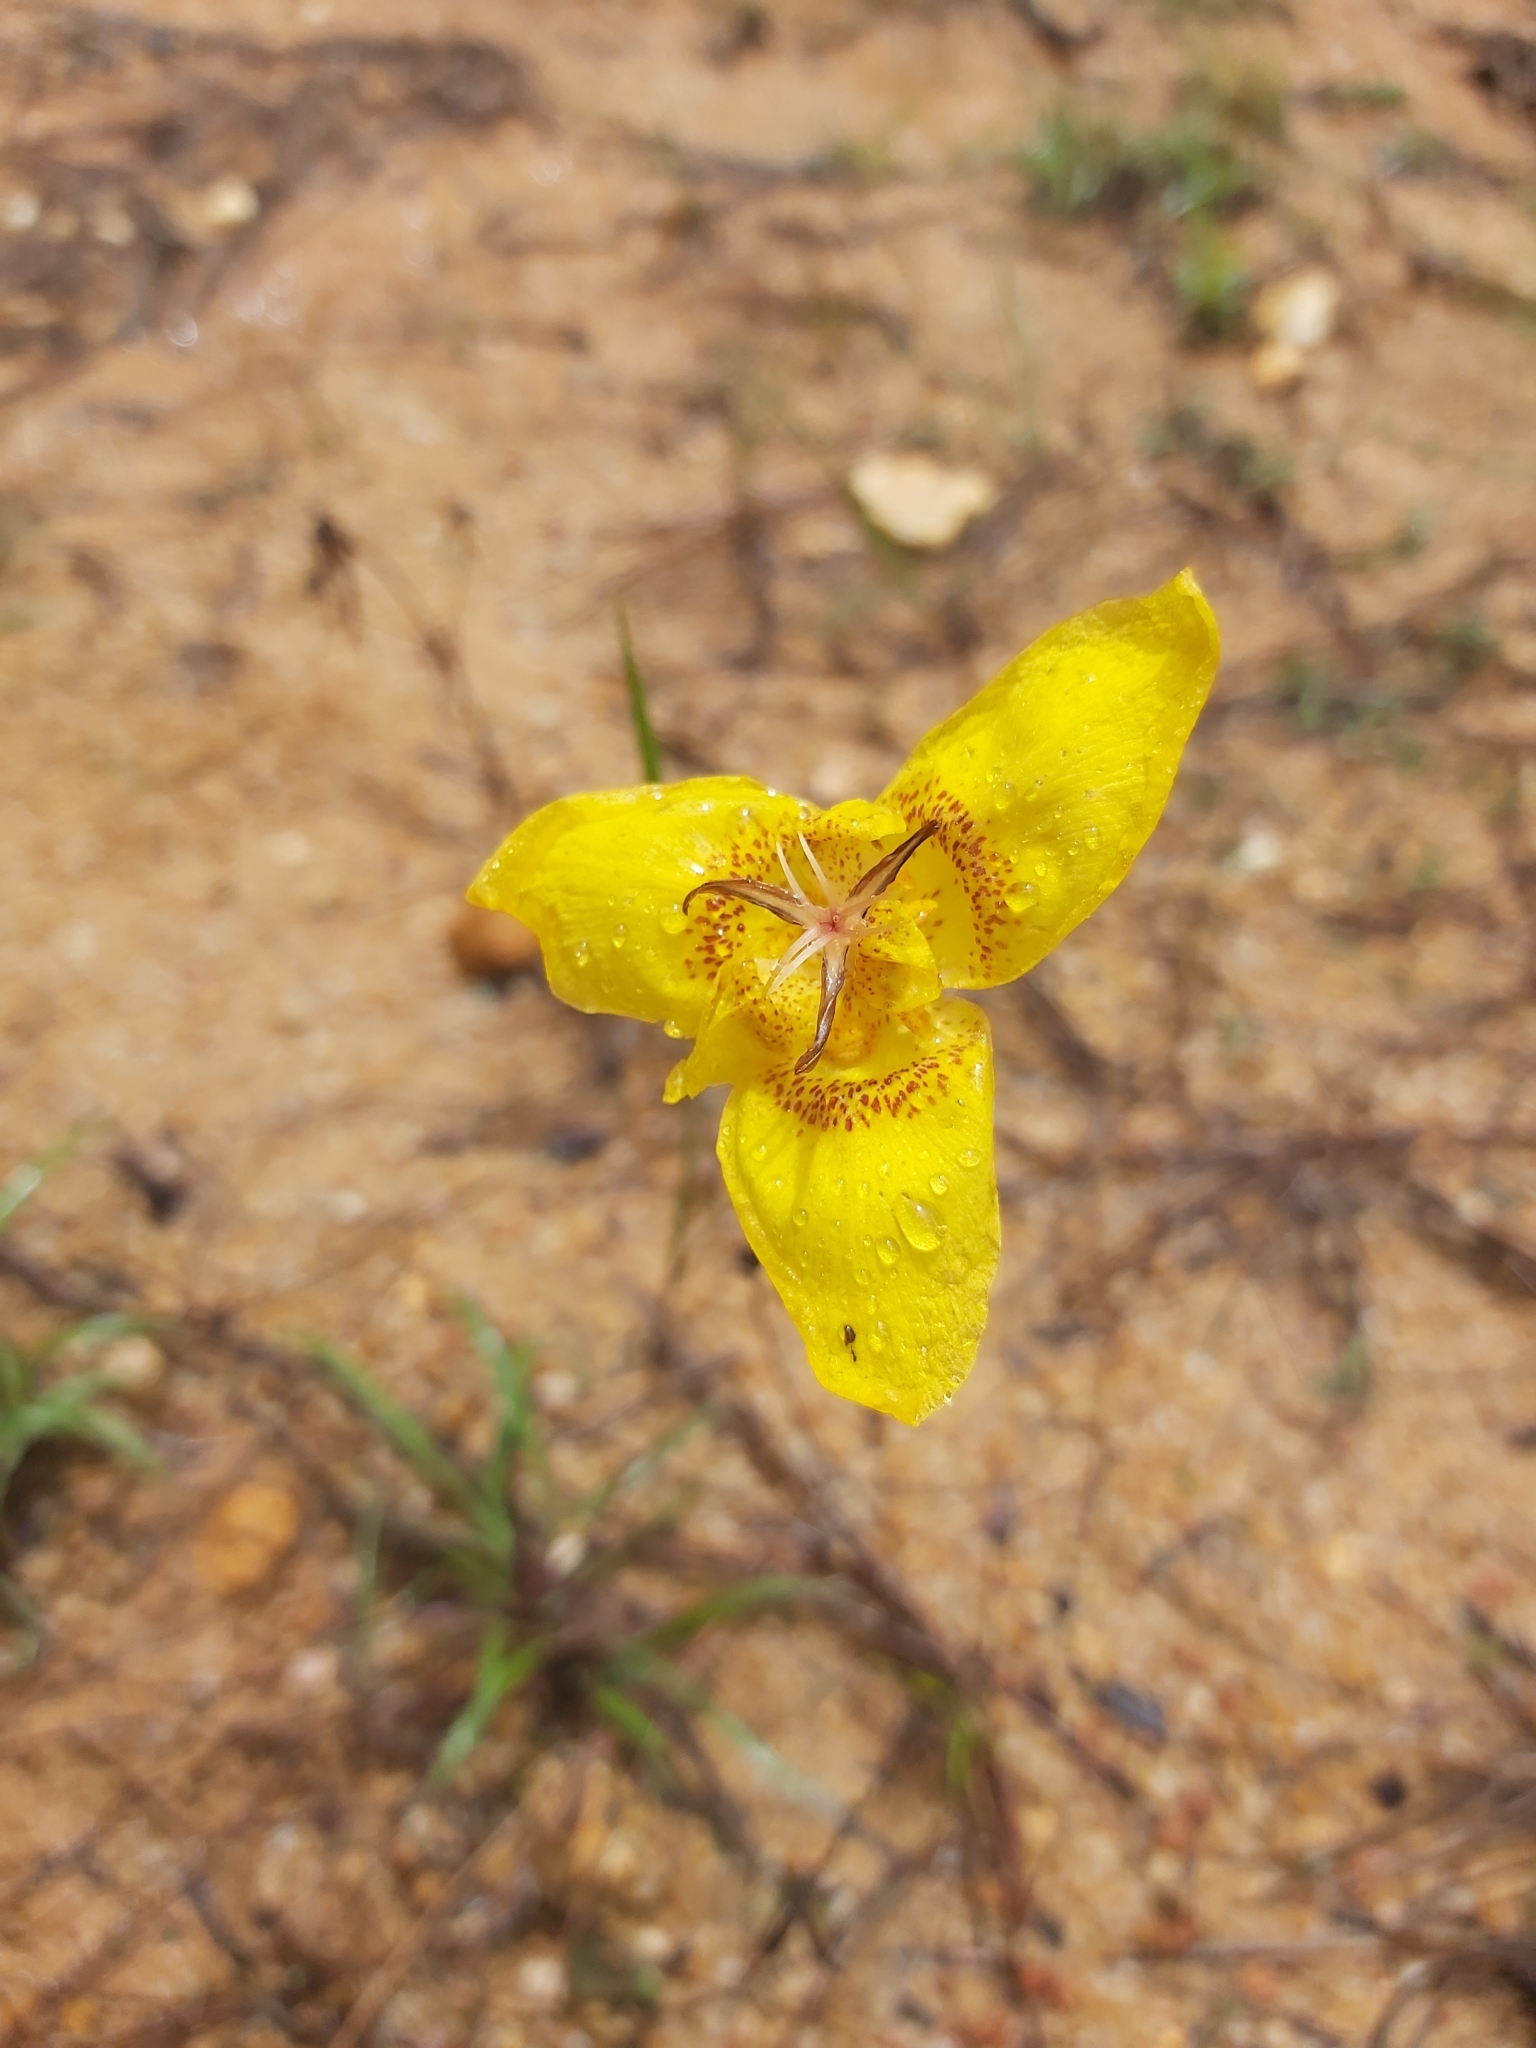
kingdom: Plantae
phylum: Tracheophyta
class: Liliopsida
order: Asparagales
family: Iridaceae
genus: Tigridia
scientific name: Tigridia chrysantha
